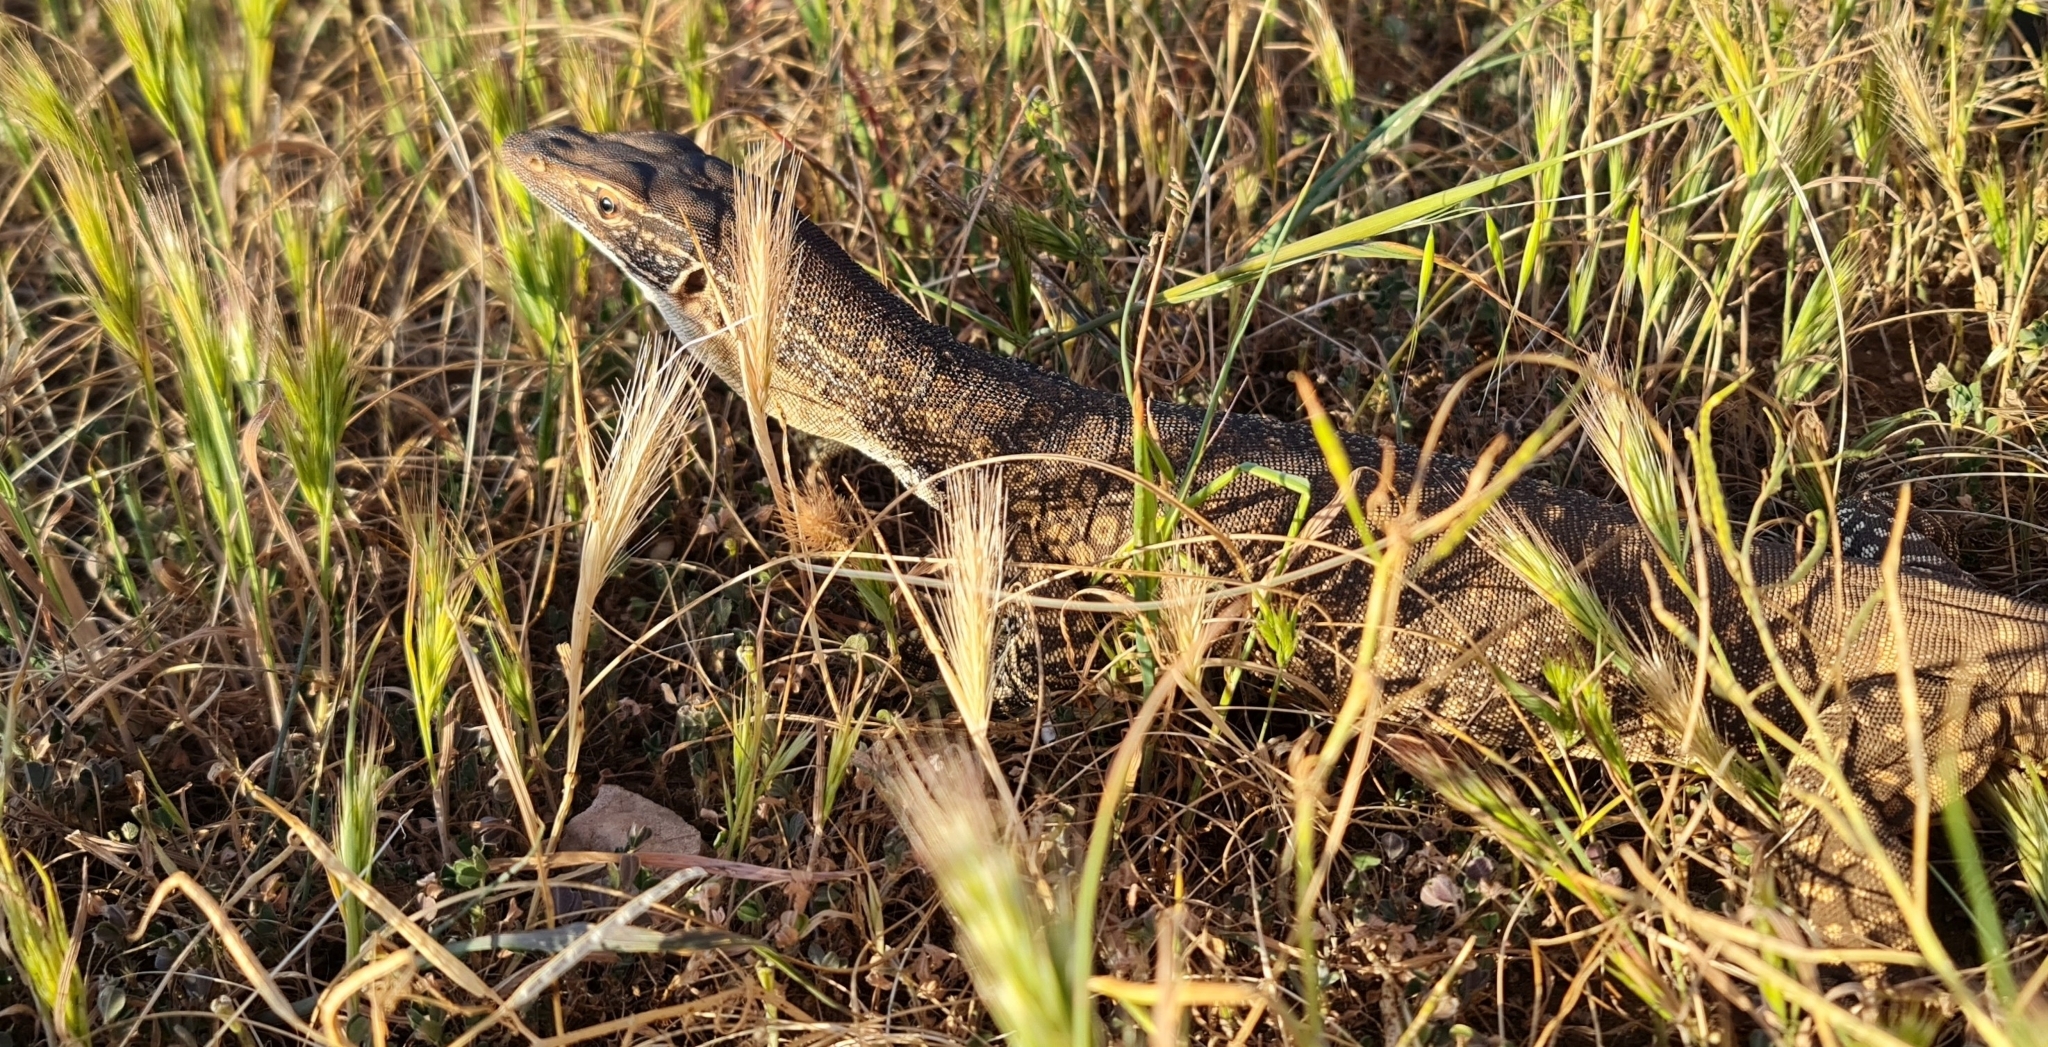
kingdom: Animalia
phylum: Chordata
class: Squamata
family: Varanidae
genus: Varanus
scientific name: Varanus gouldii
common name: Gould's goanna
